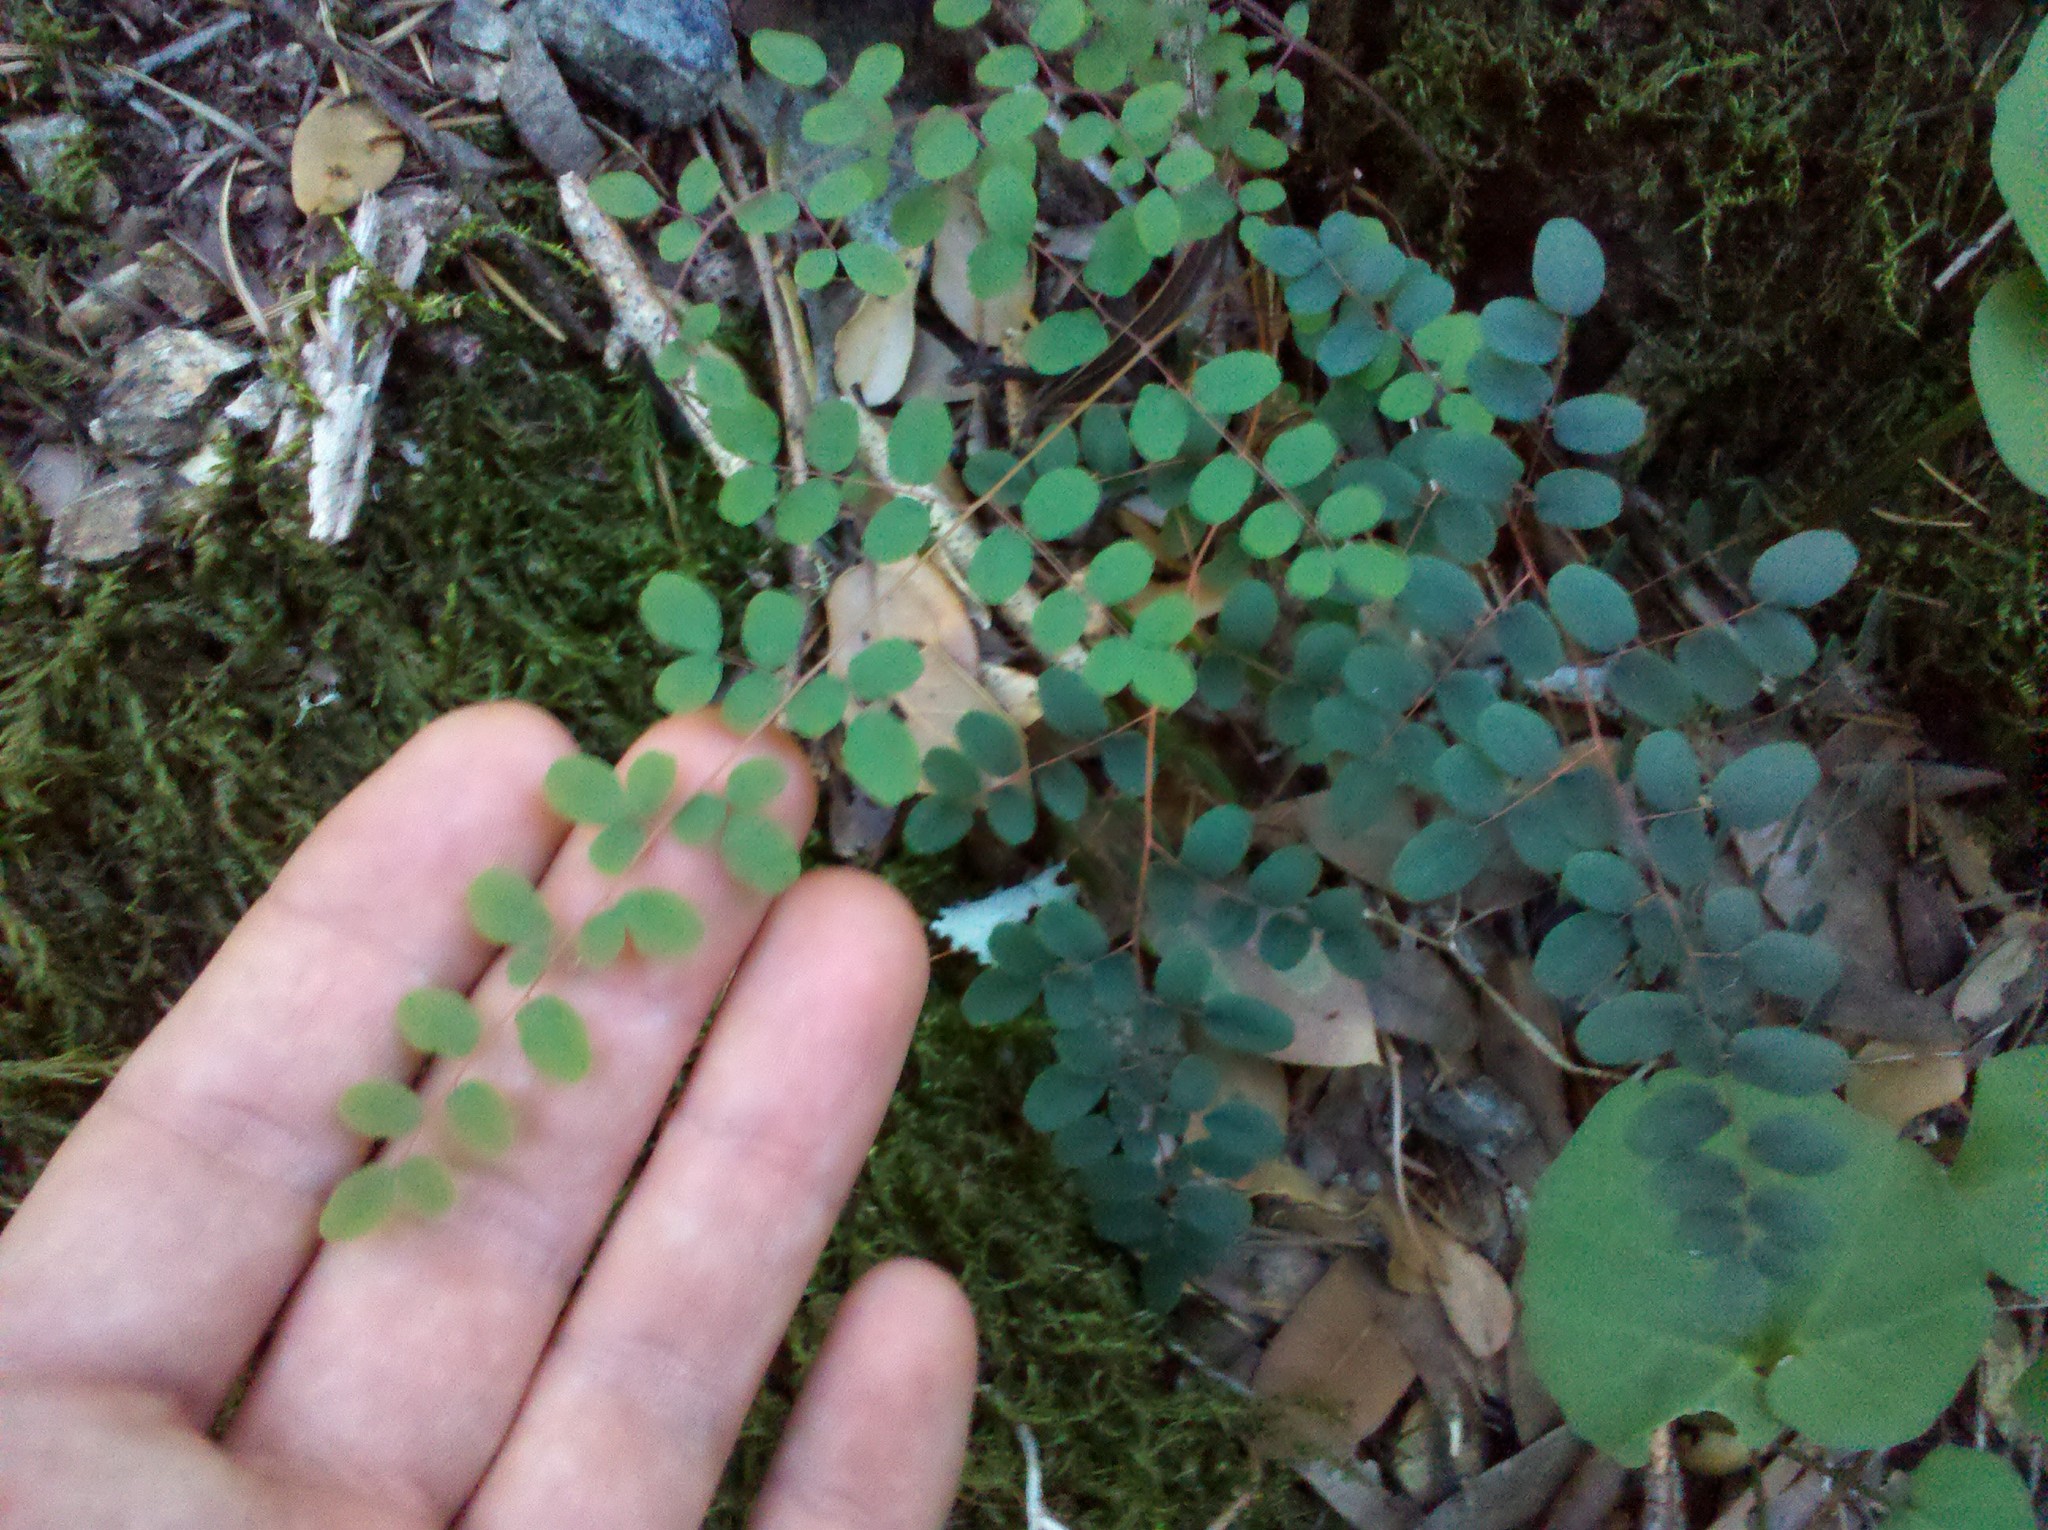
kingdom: Plantae
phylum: Tracheophyta
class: Polypodiopsida
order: Polypodiales
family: Pteridaceae
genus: Pellaea
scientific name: Pellaea andromedifolia
